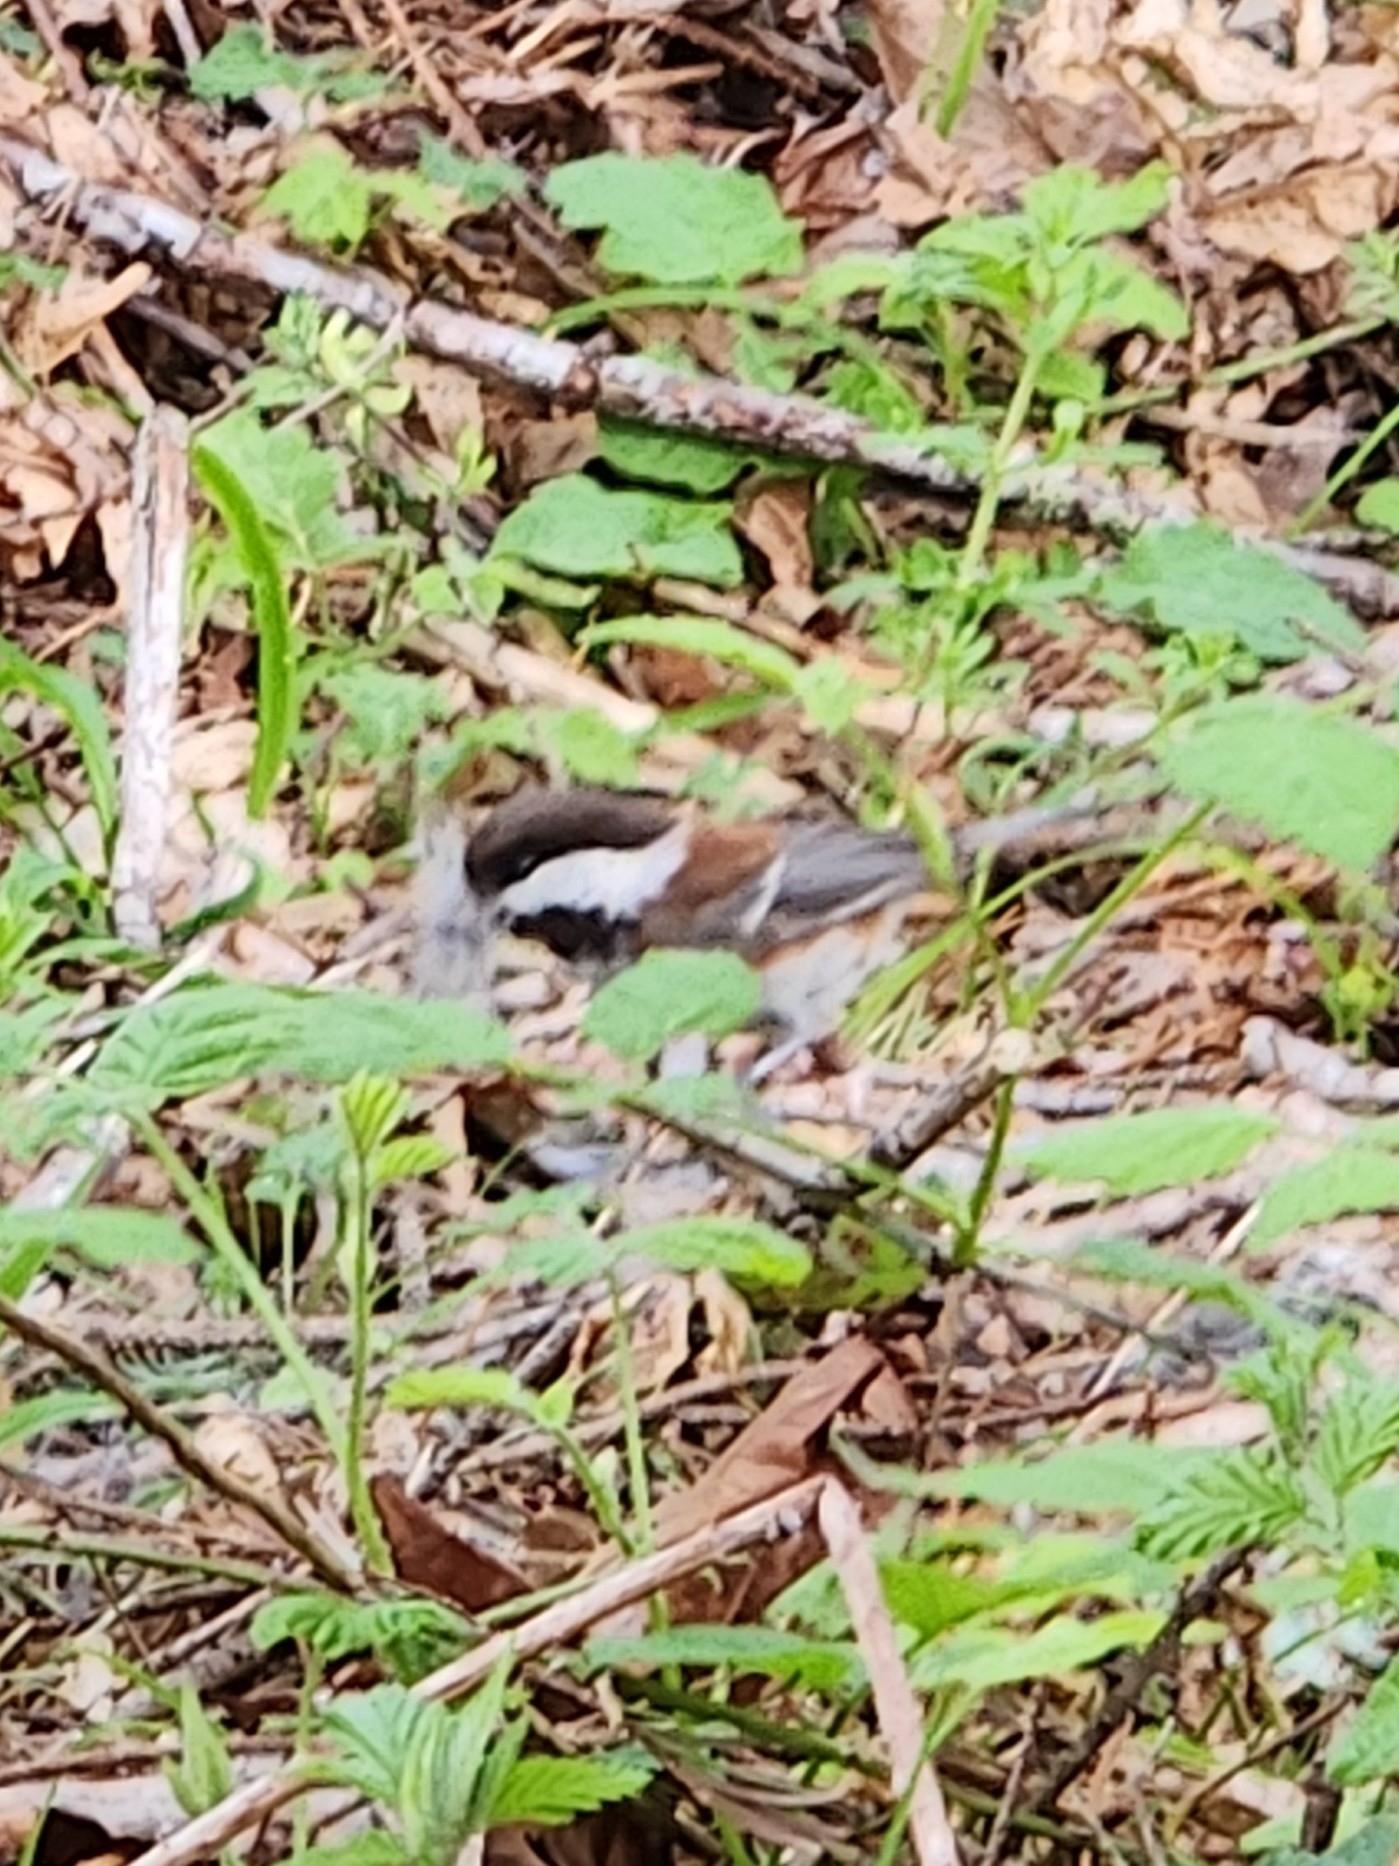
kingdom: Animalia
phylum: Chordata
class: Aves
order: Passeriformes
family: Paridae
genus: Poecile
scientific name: Poecile rufescens
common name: Chestnut-backed chickadee
